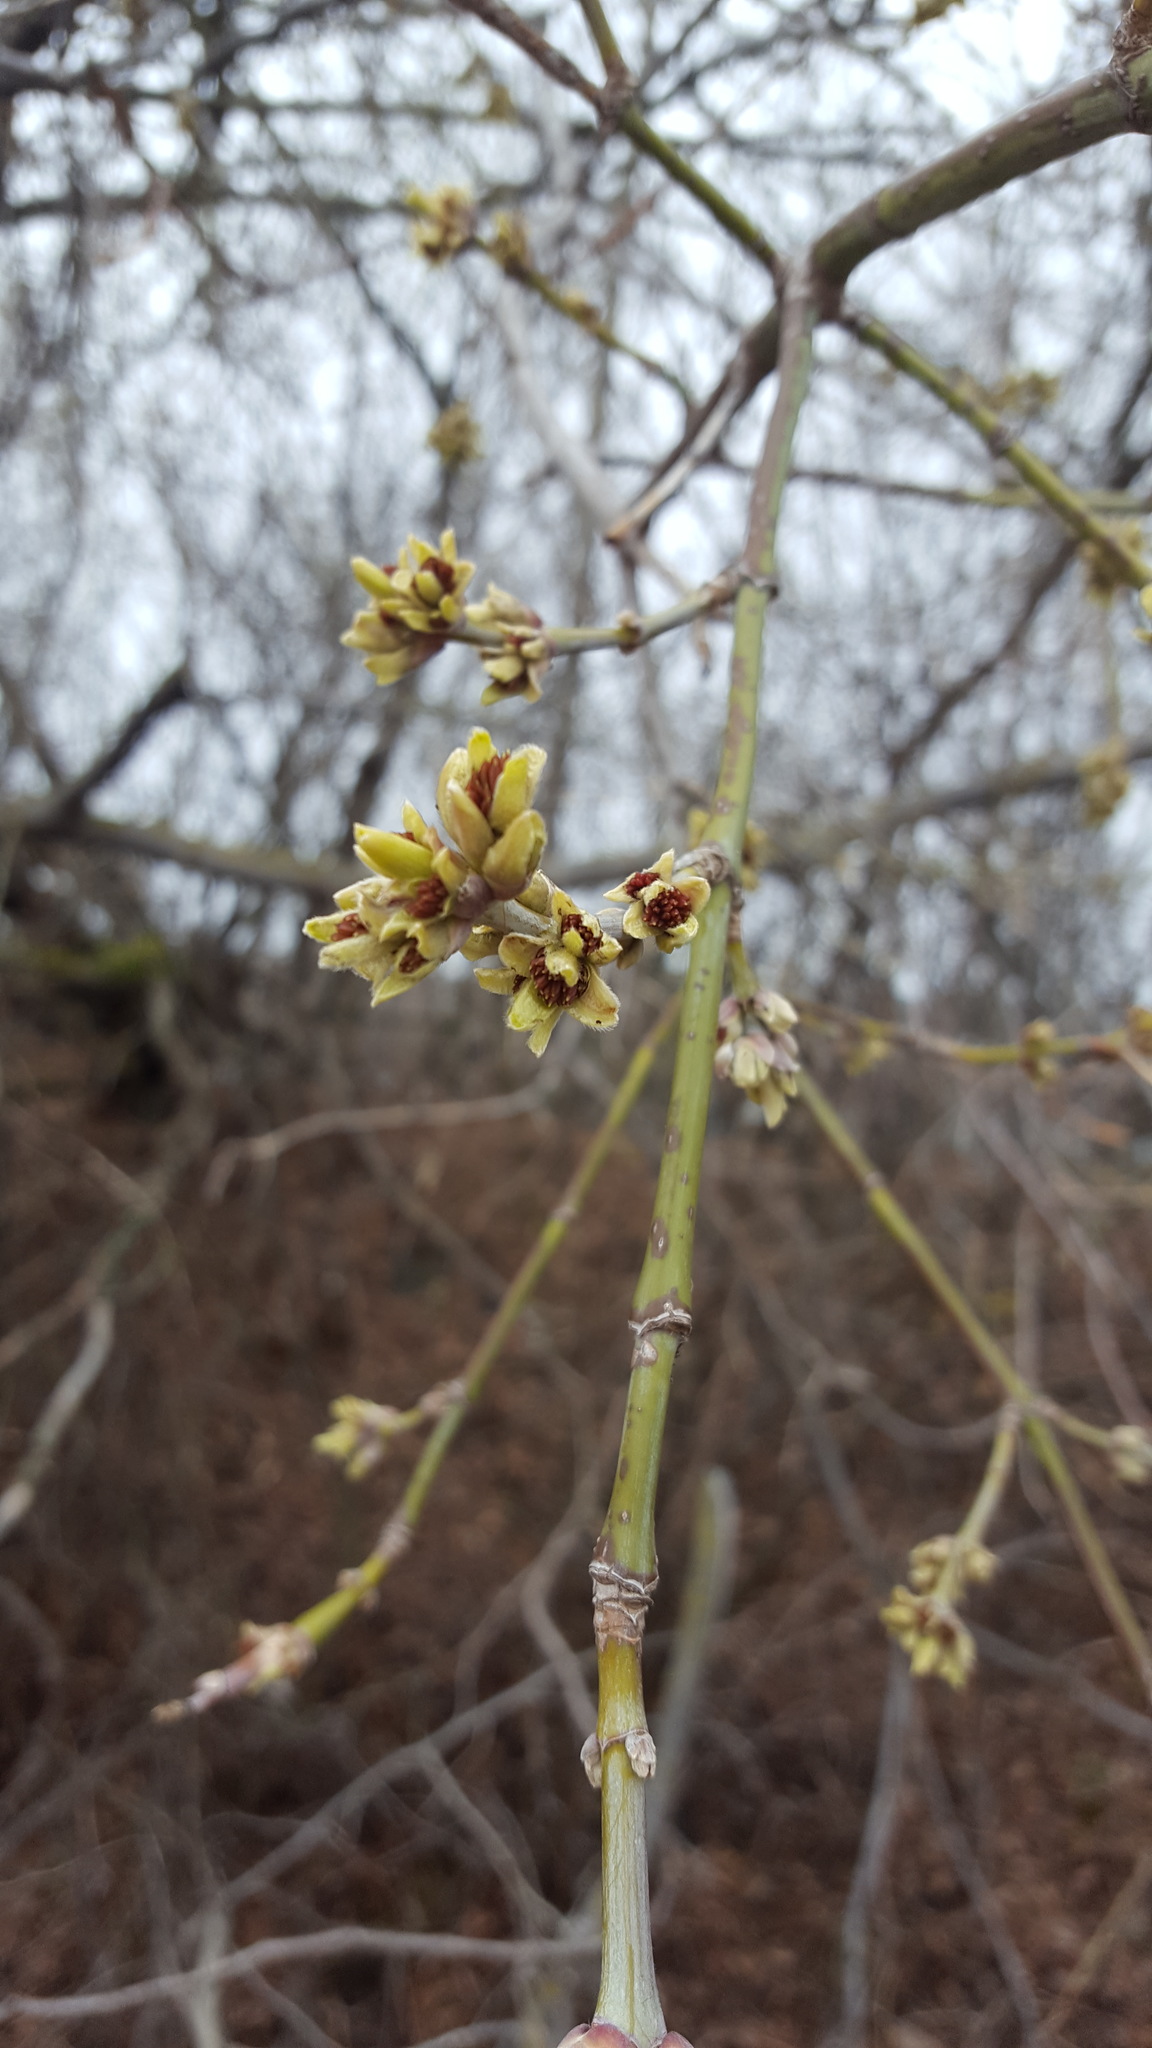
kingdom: Plantae
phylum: Tracheophyta
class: Magnoliopsida
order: Sapindales
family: Sapindaceae
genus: Acer
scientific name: Acer negundo
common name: Ashleaf maple
